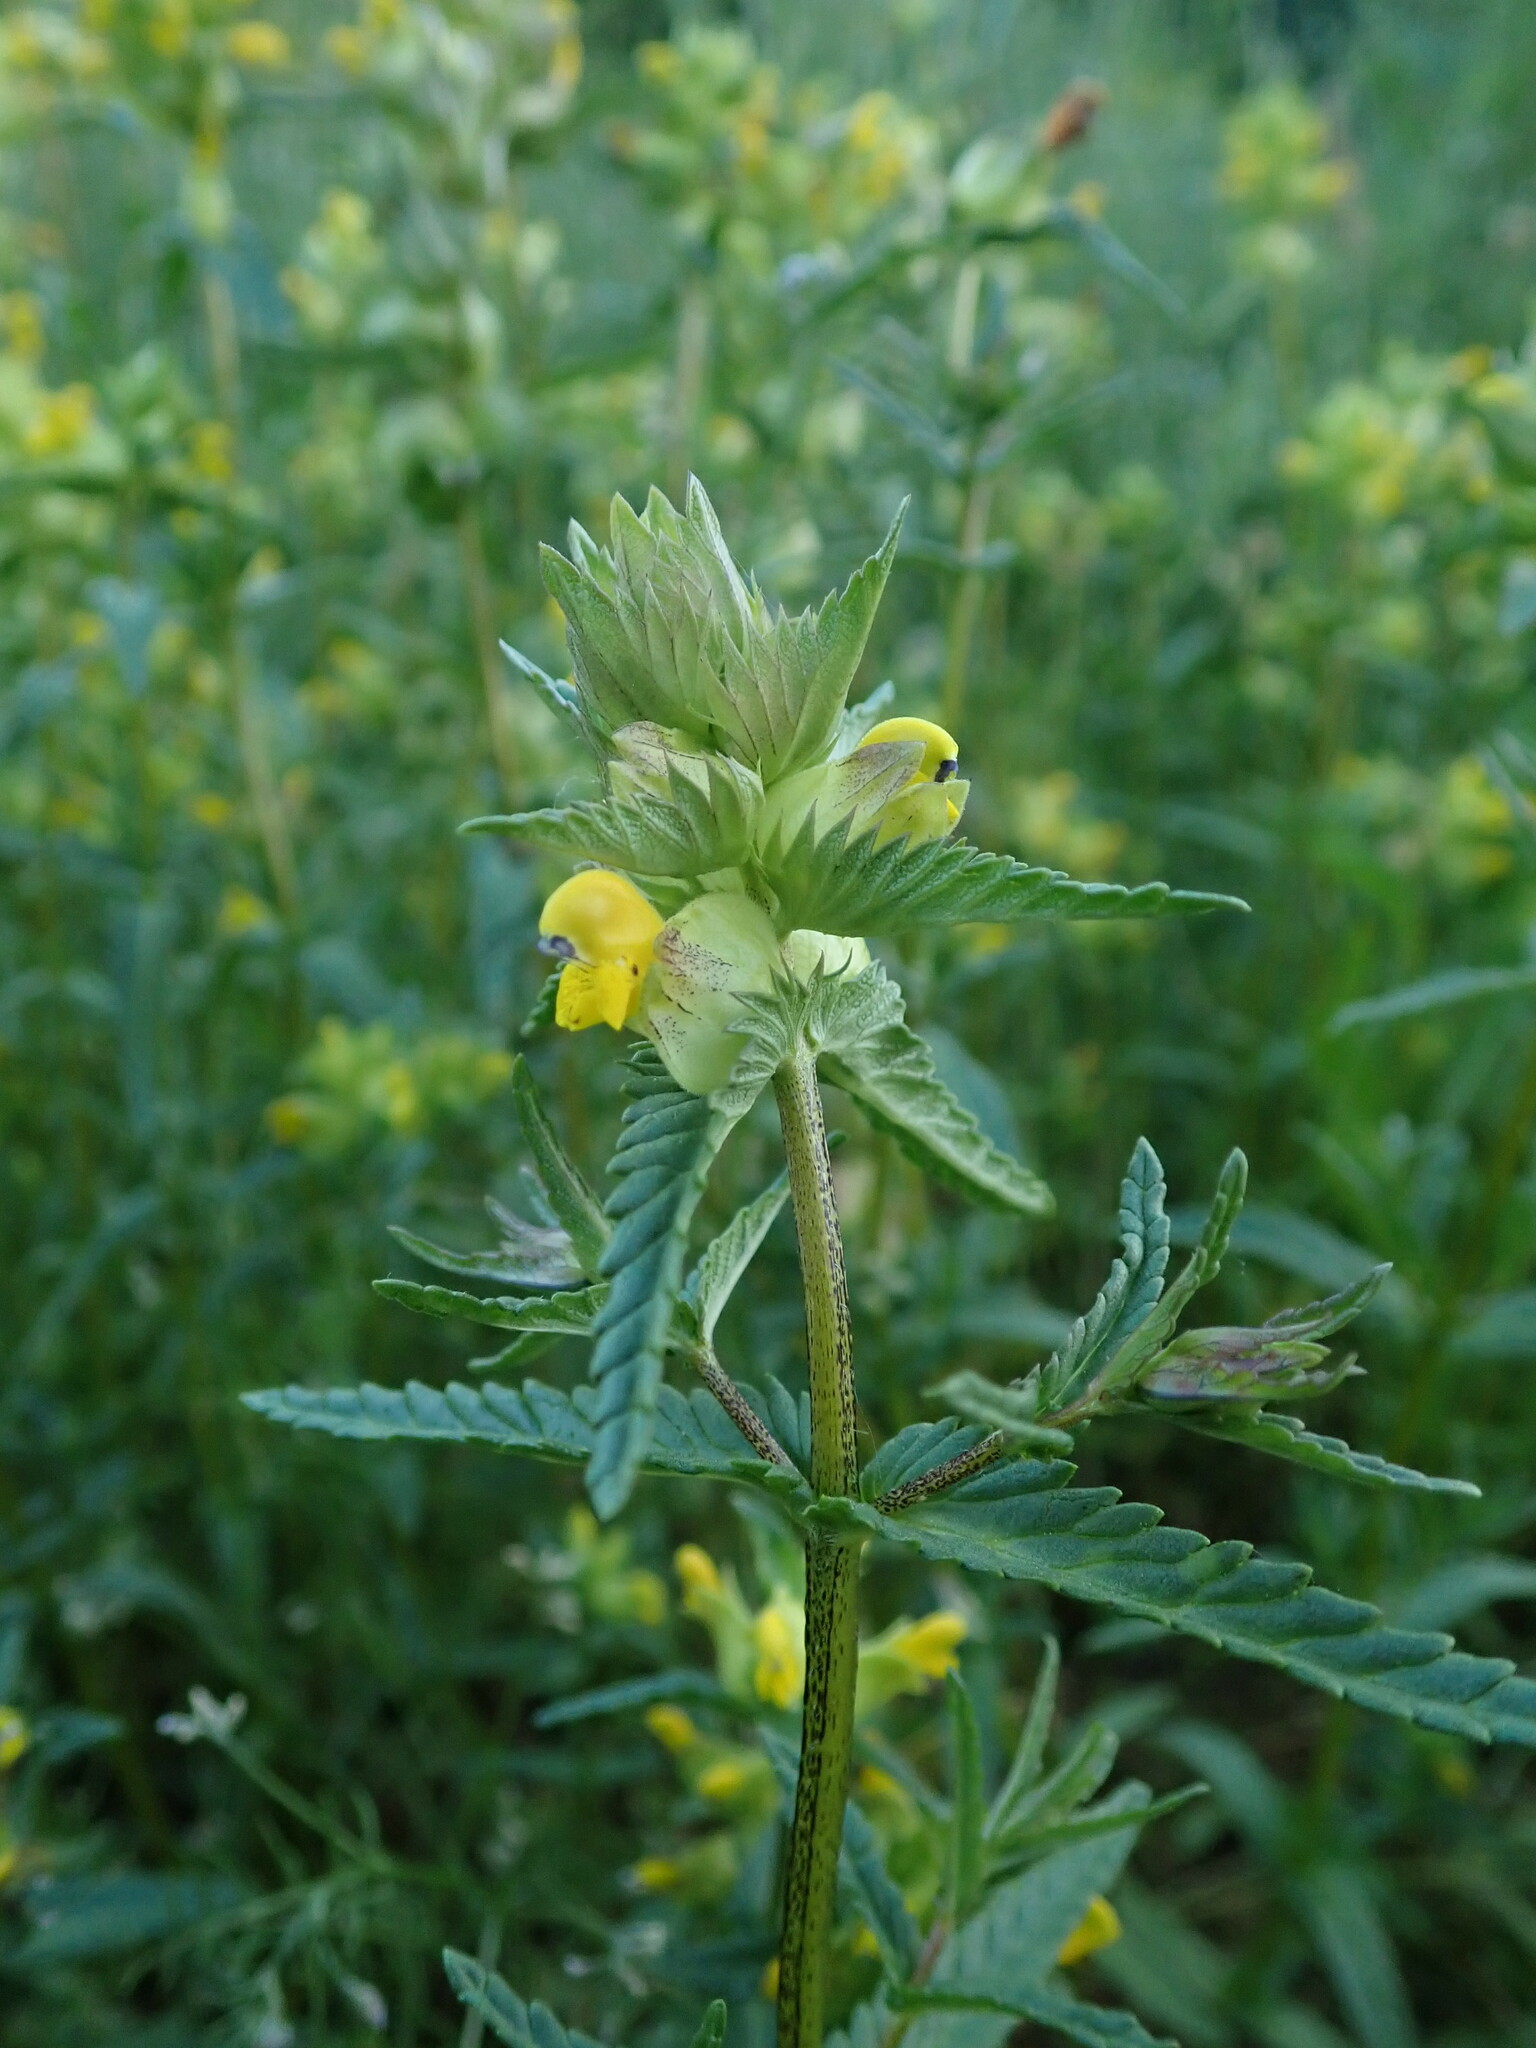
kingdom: Plantae
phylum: Tracheophyta
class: Magnoliopsida
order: Lamiales
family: Orobanchaceae
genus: Rhinanthus
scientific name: Rhinanthus minor
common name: Yellow-rattle
